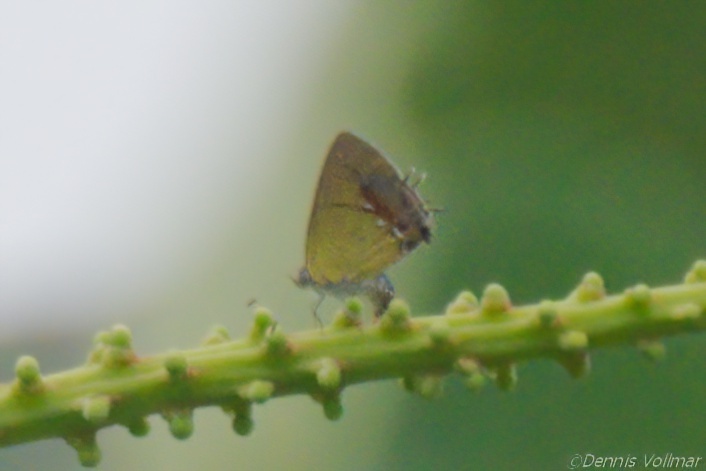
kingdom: Animalia
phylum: Arthropoda
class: Insecta
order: Lepidoptera
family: Lycaenidae
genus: Thecla
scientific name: Thecla maesites
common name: Verde azul hairstreak
